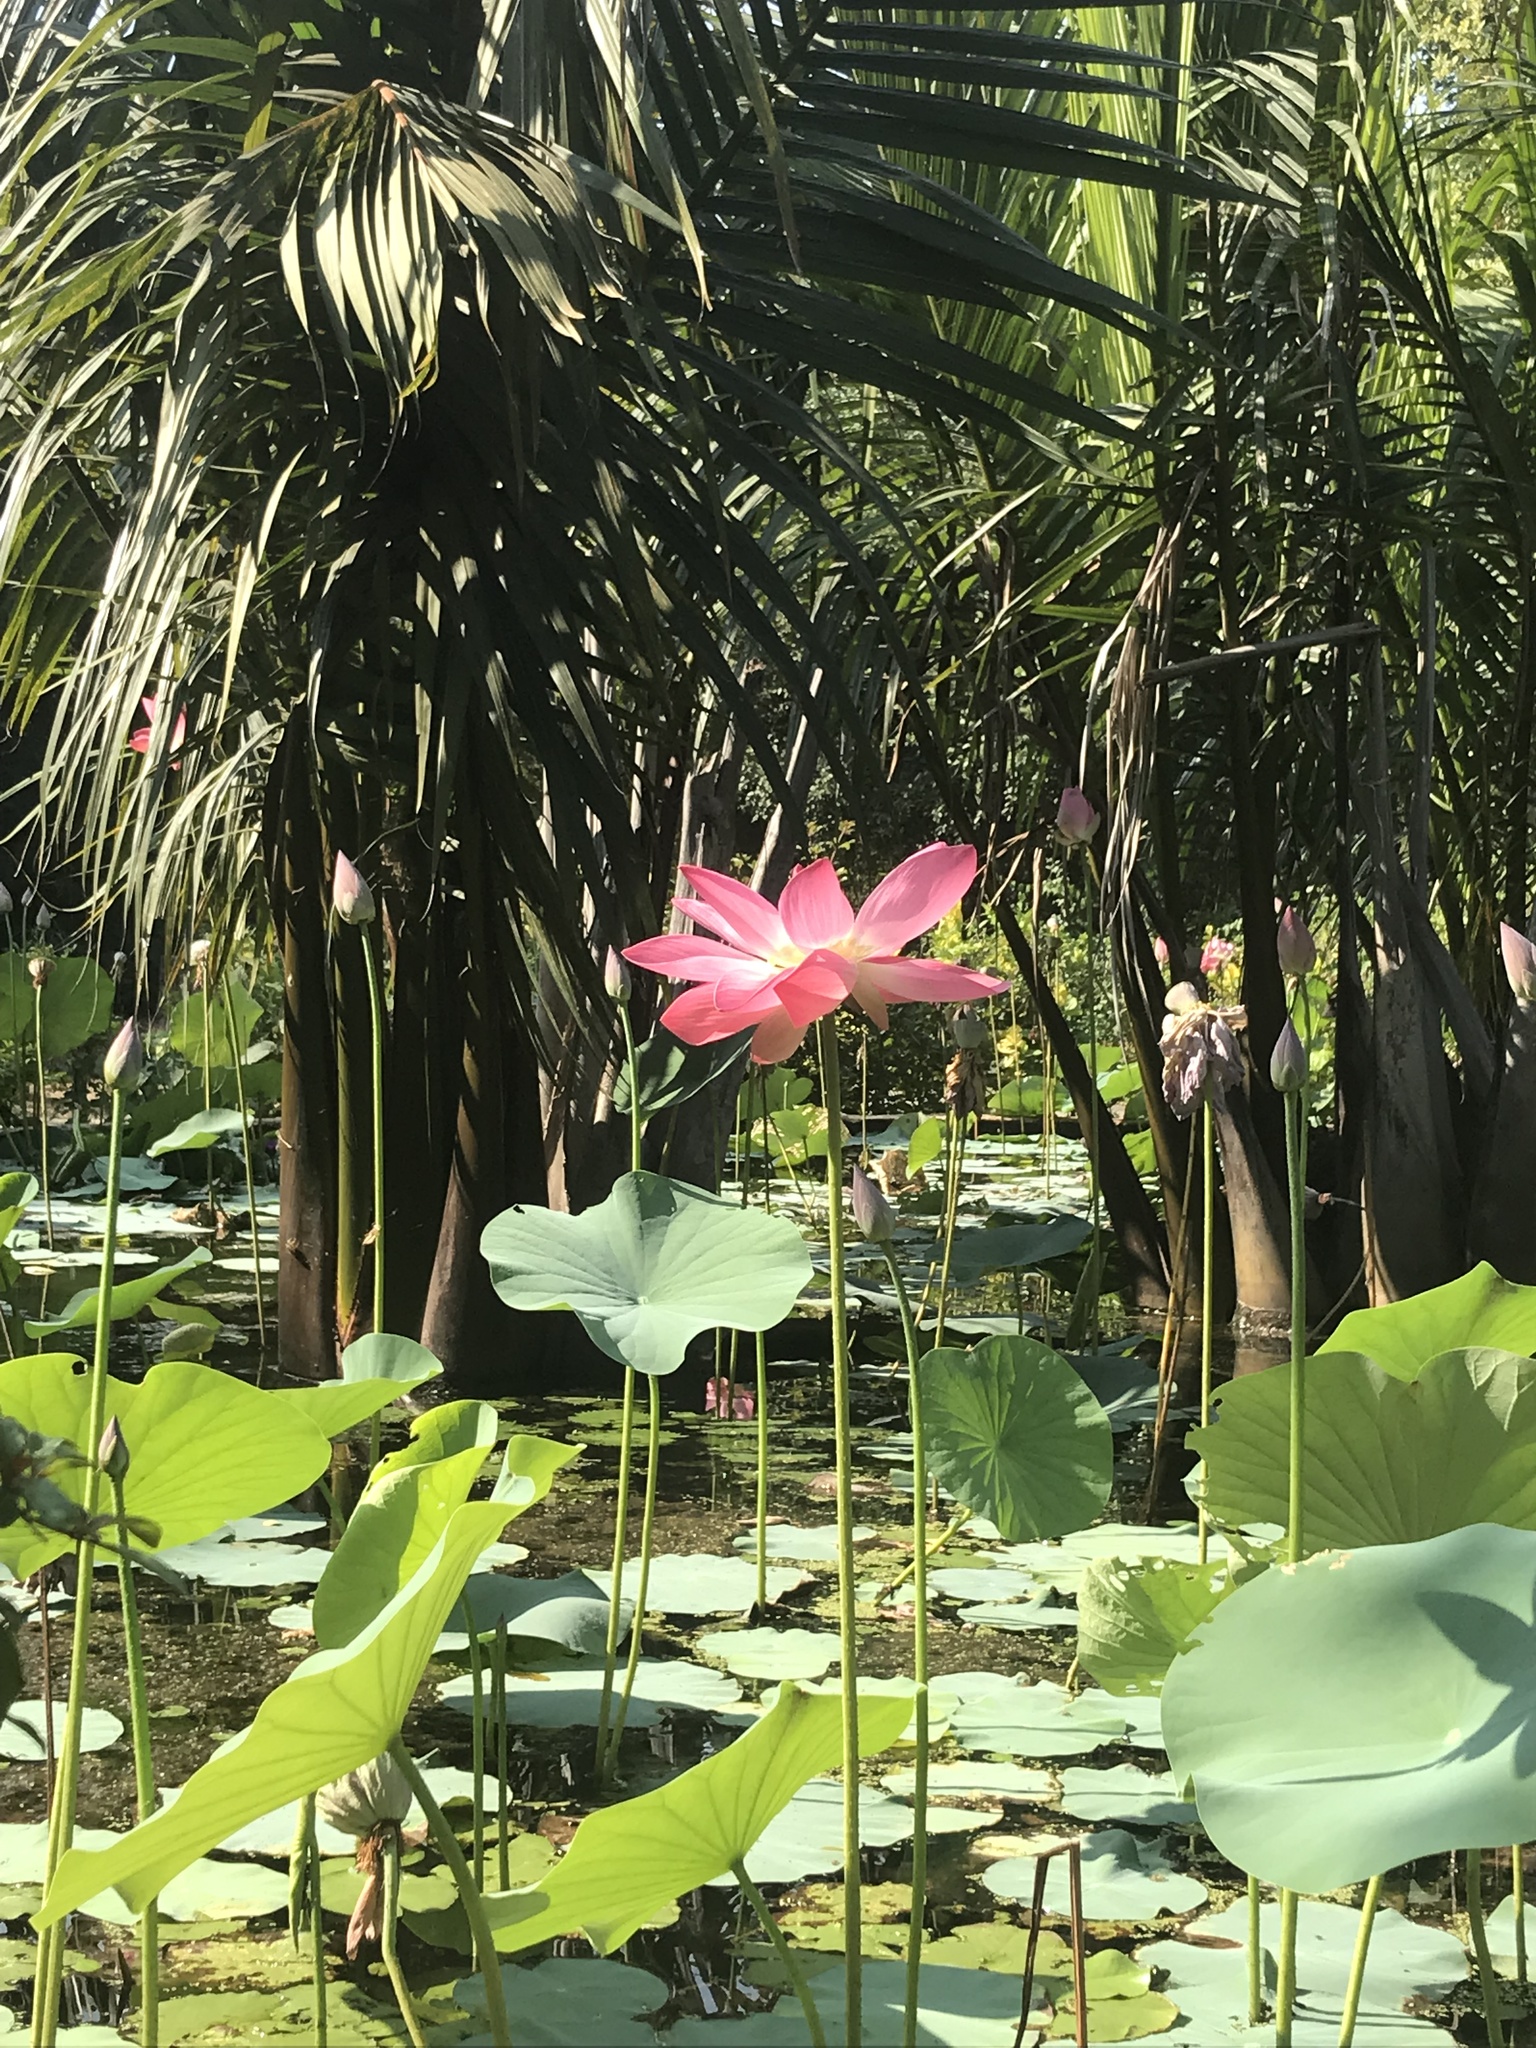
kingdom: Plantae
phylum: Tracheophyta
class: Magnoliopsida
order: Proteales
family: Nelumbonaceae
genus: Nelumbo
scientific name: Nelumbo nucifera
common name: Sacred lotus
